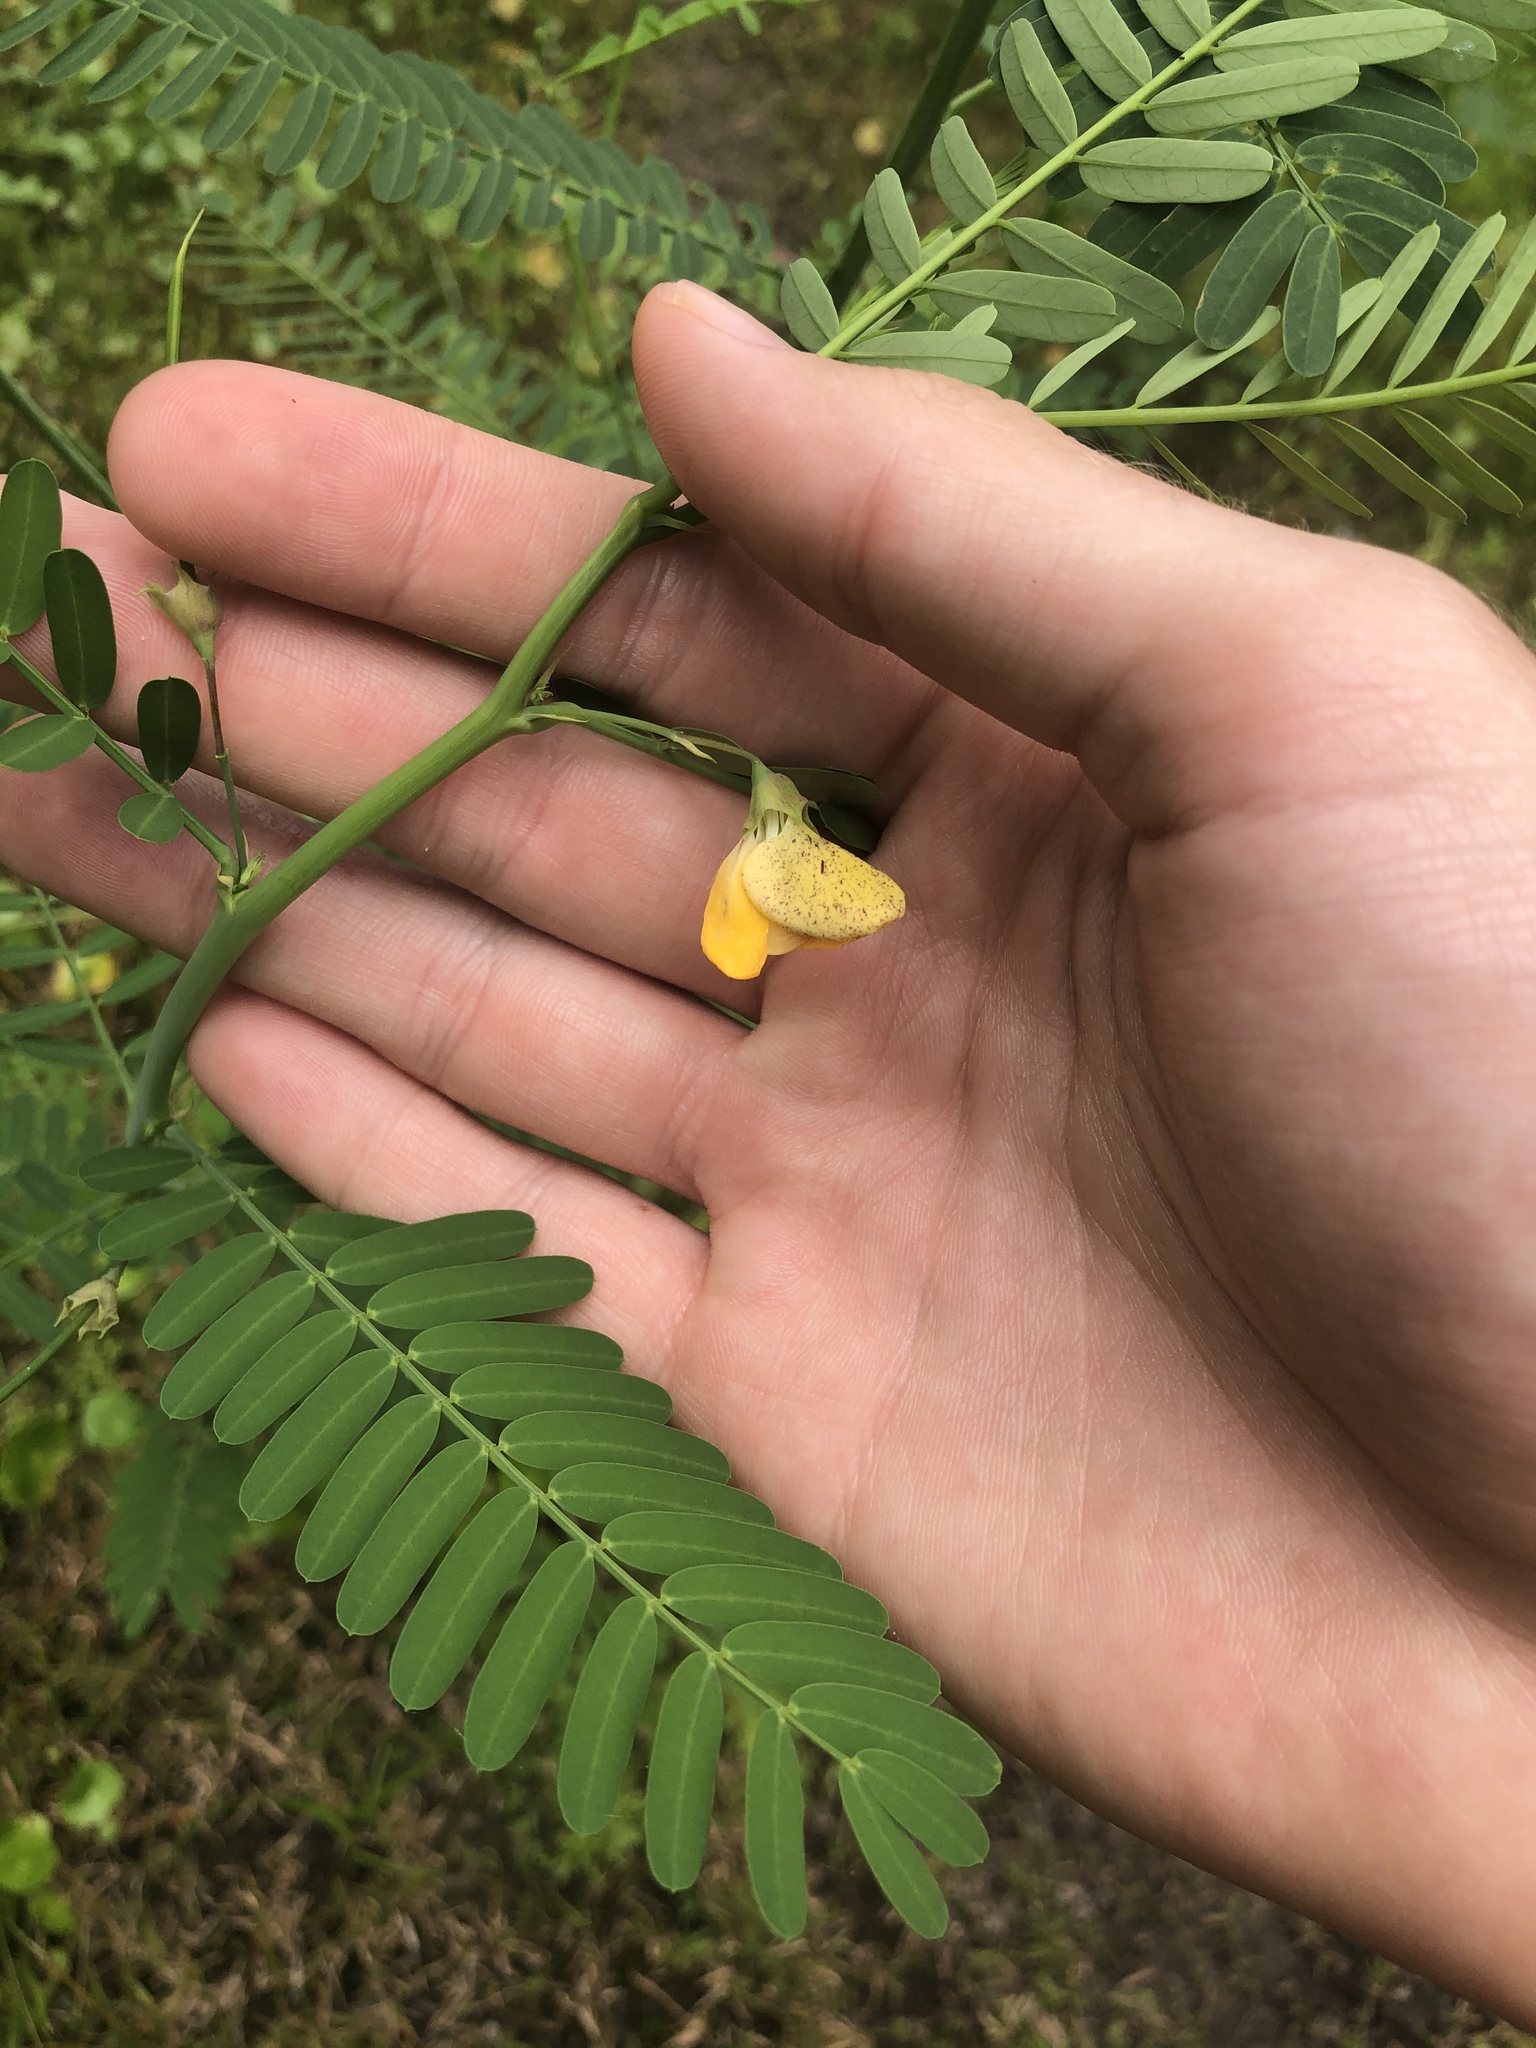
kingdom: Plantae
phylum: Tracheophyta
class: Magnoliopsida
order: Fabales
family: Fabaceae
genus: Sesbania
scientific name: Sesbania herbacea
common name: Bigpod sesbania
